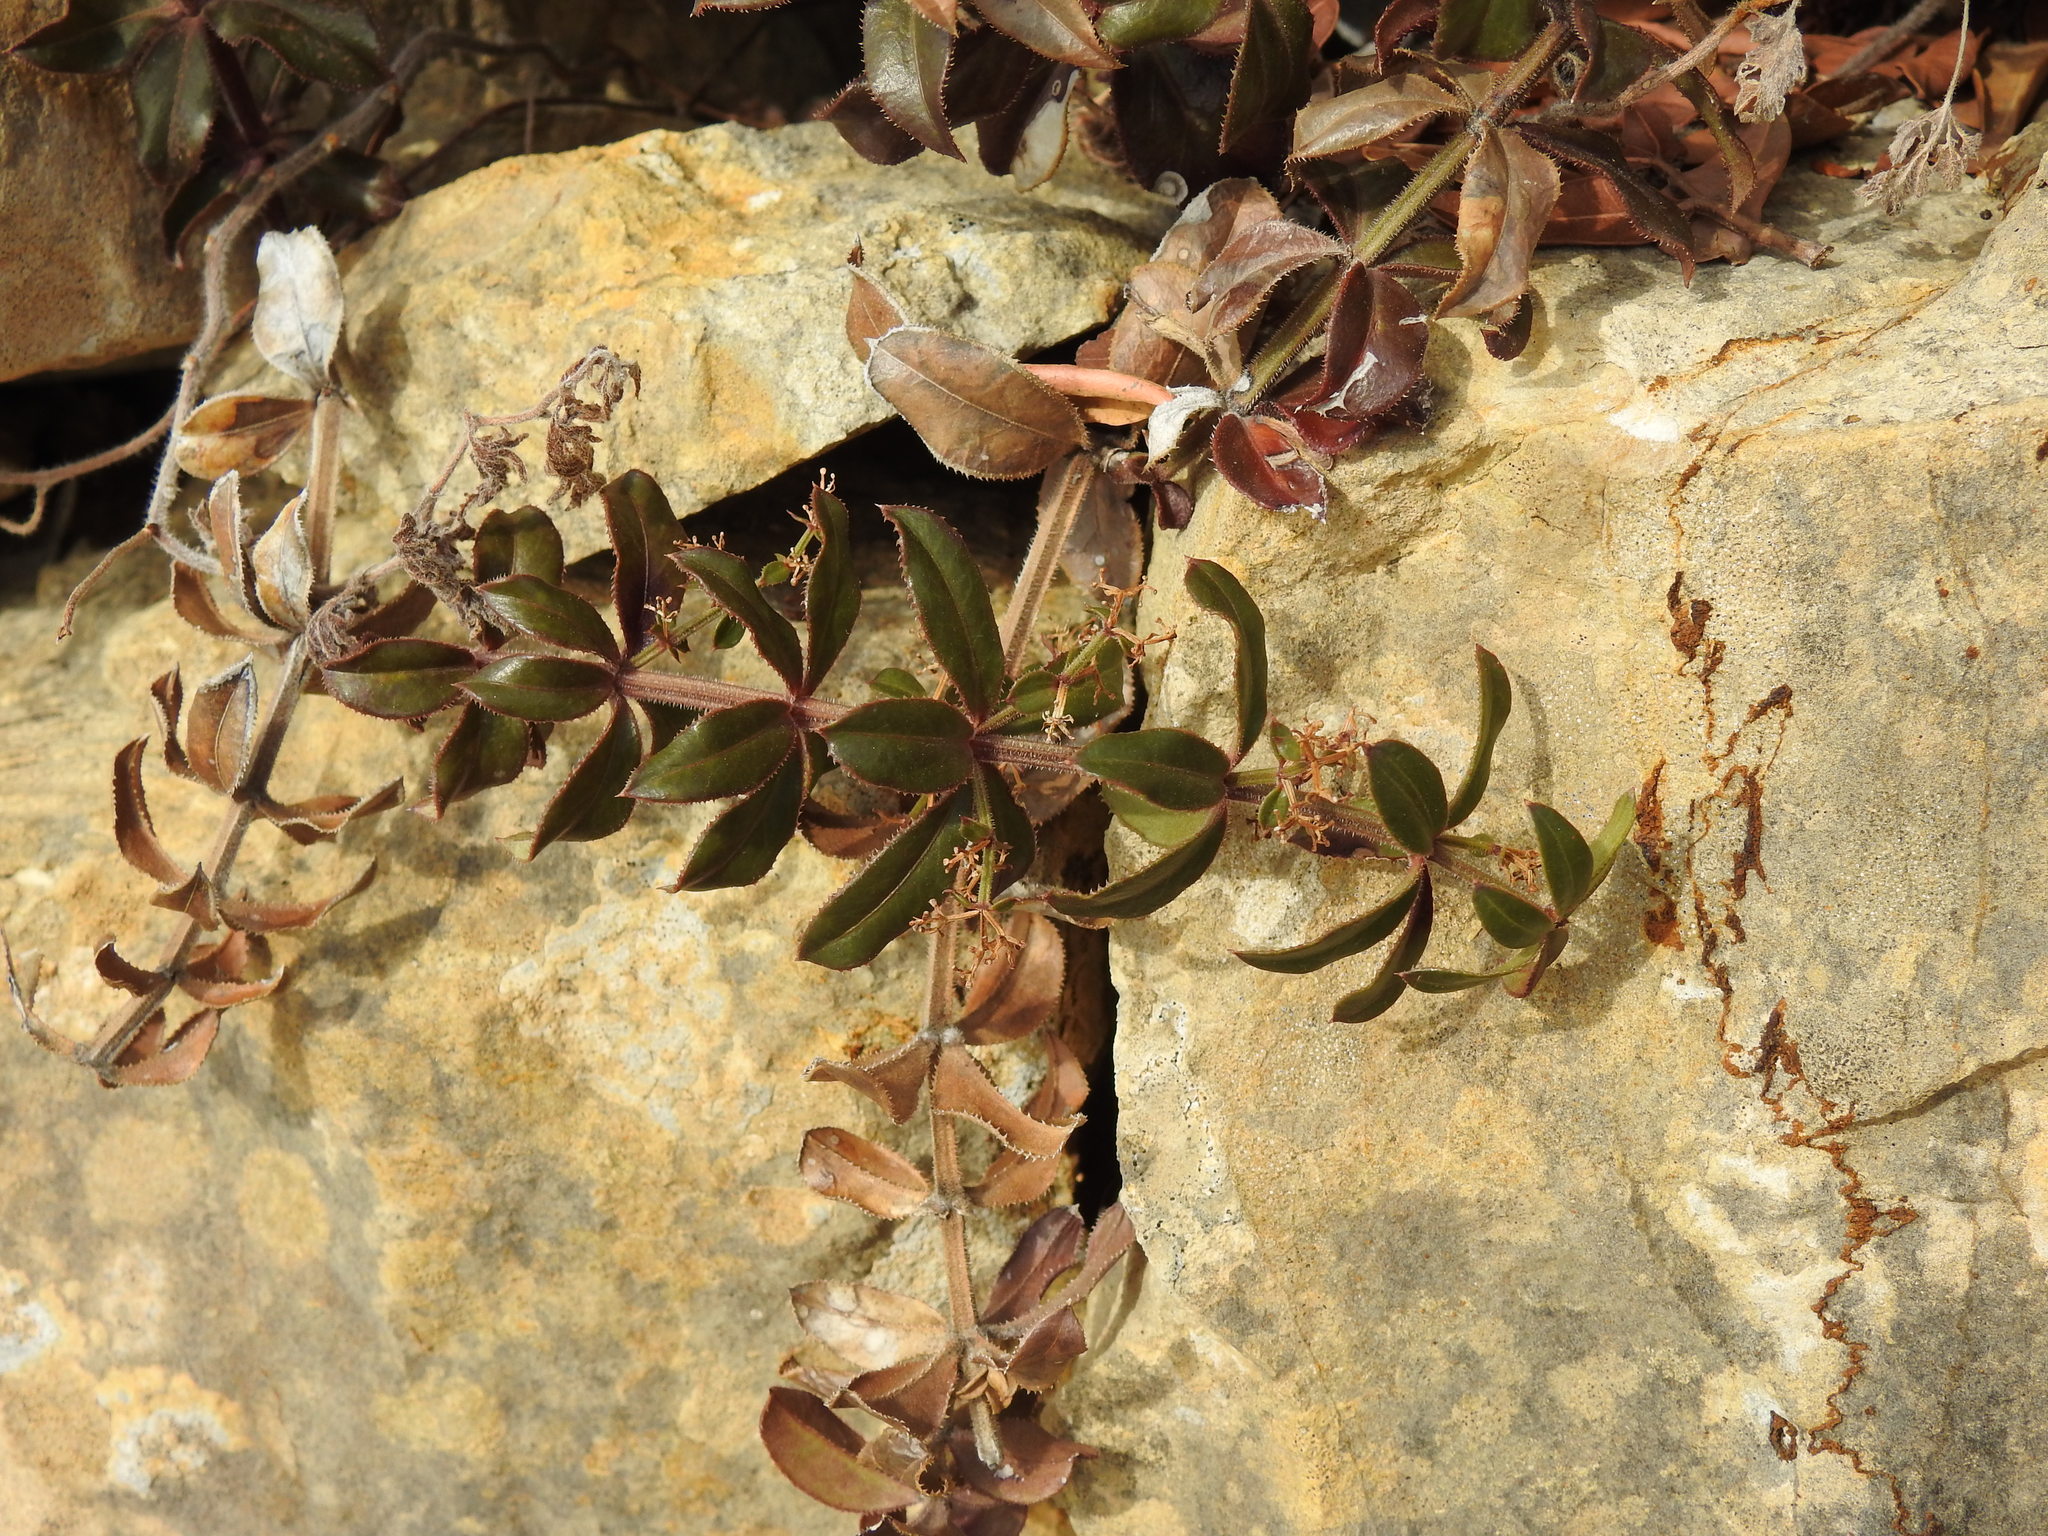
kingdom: Plantae
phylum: Tracheophyta
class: Magnoliopsida
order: Gentianales
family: Rubiaceae
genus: Rubia
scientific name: Rubia peregrina
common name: Wild madder
